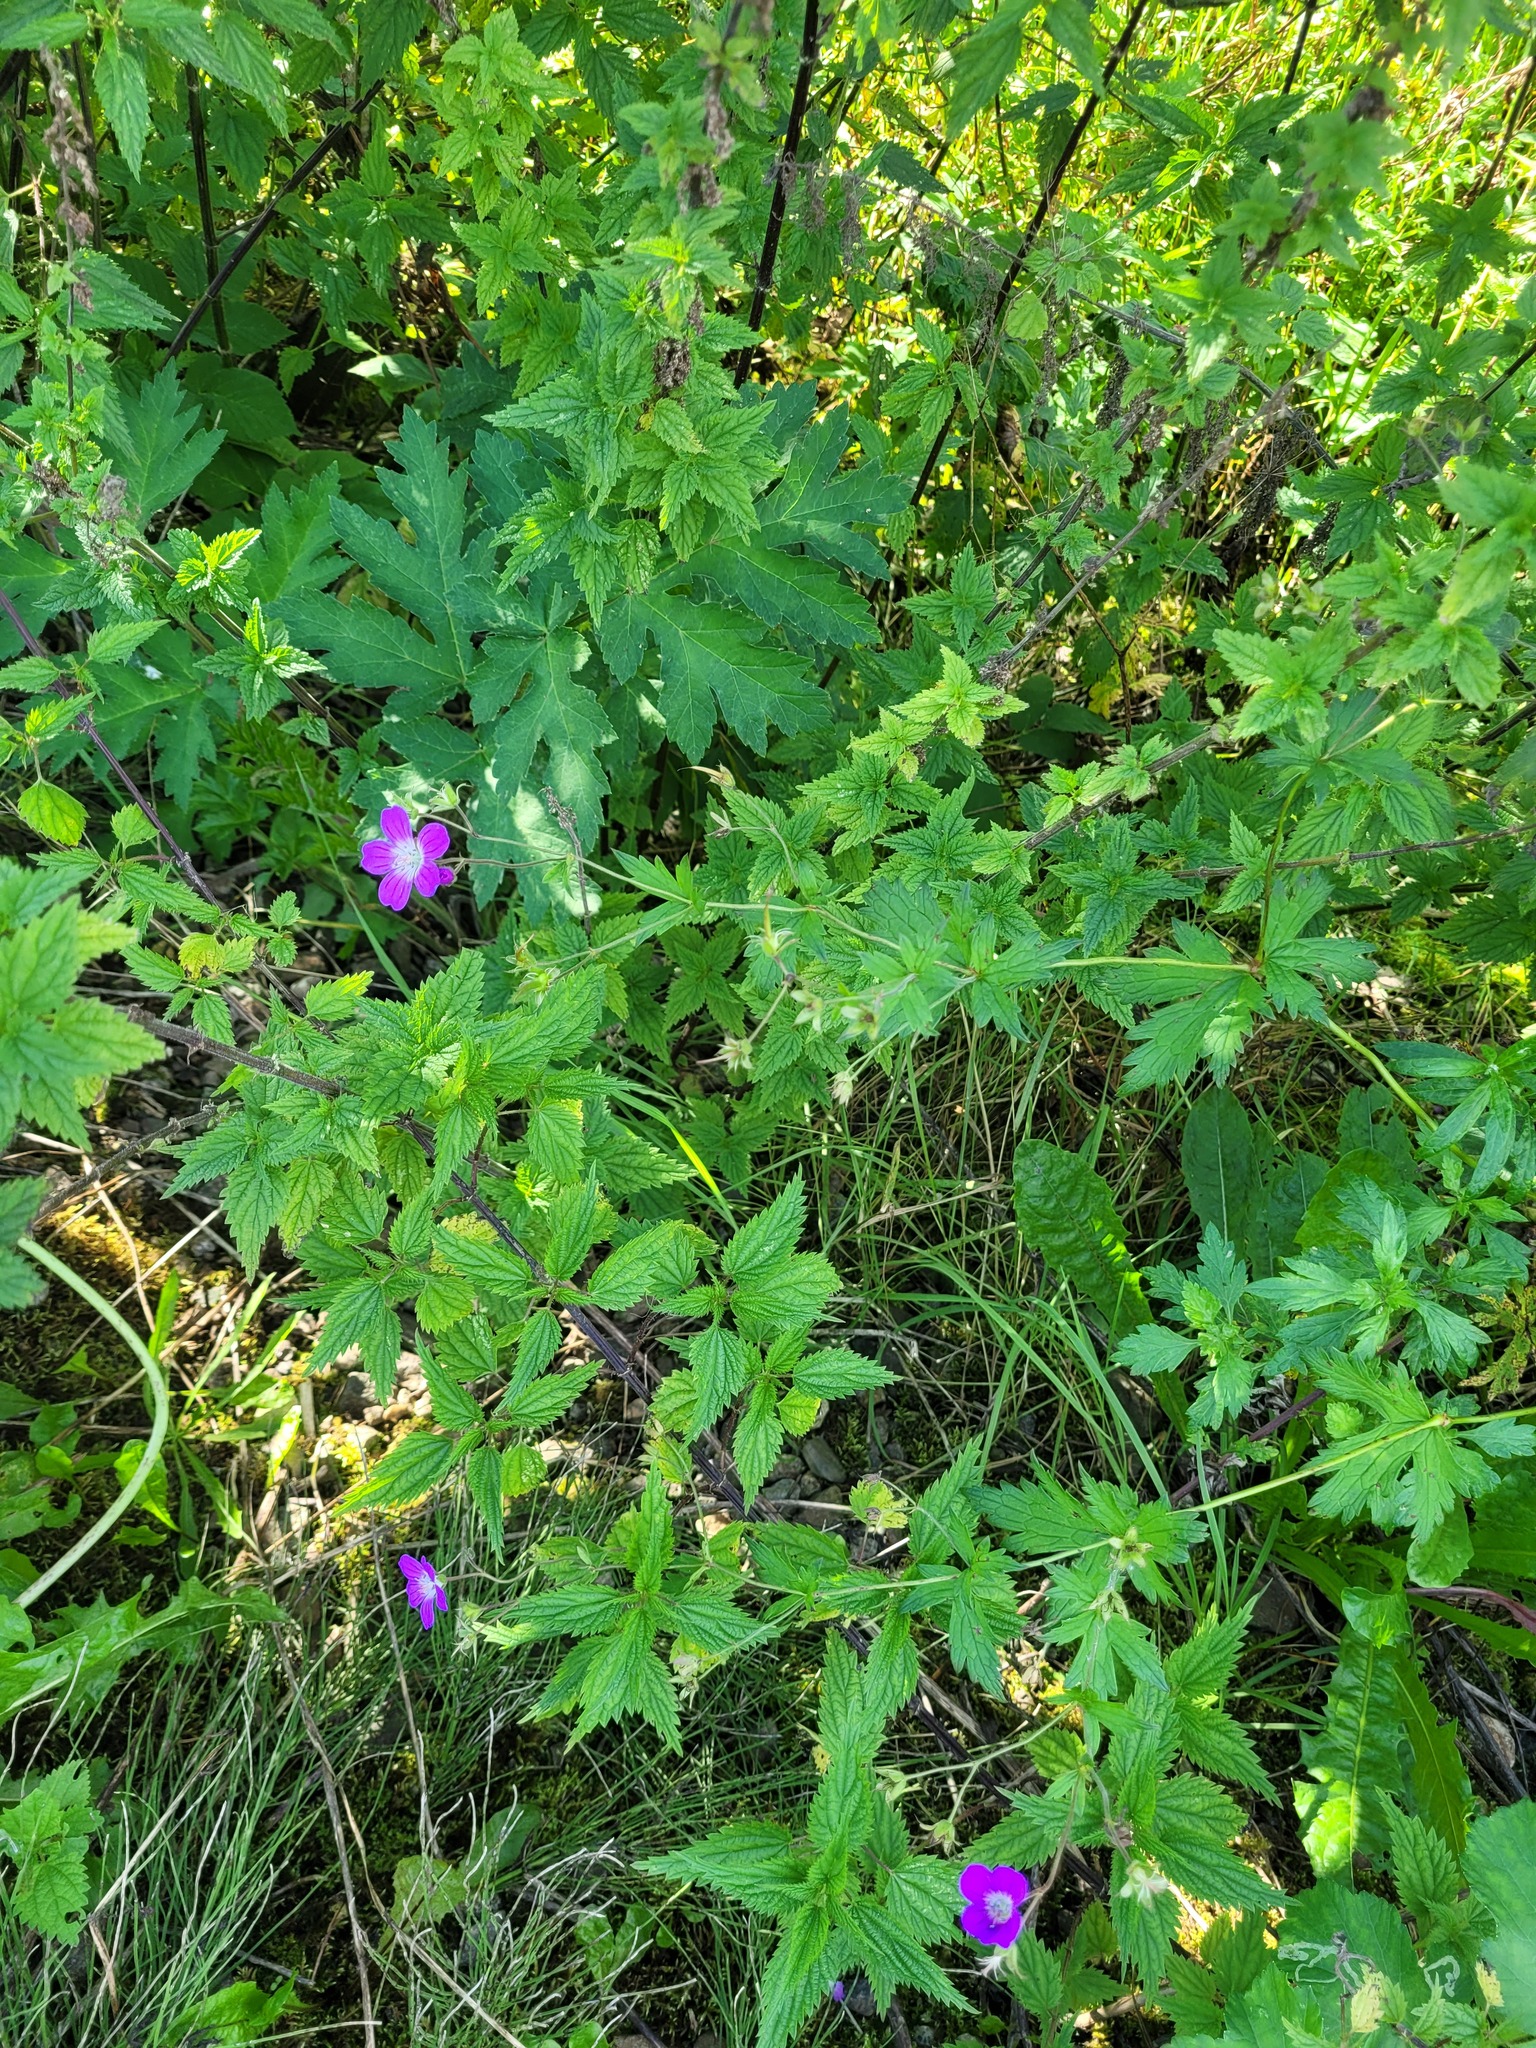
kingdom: Plantae
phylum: Tracheophyta
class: Magnoliopsida
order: Geraniales
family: Geraniaceae
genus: Geranium
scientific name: Geranium sylvaticum
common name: Wood crane's-bill
